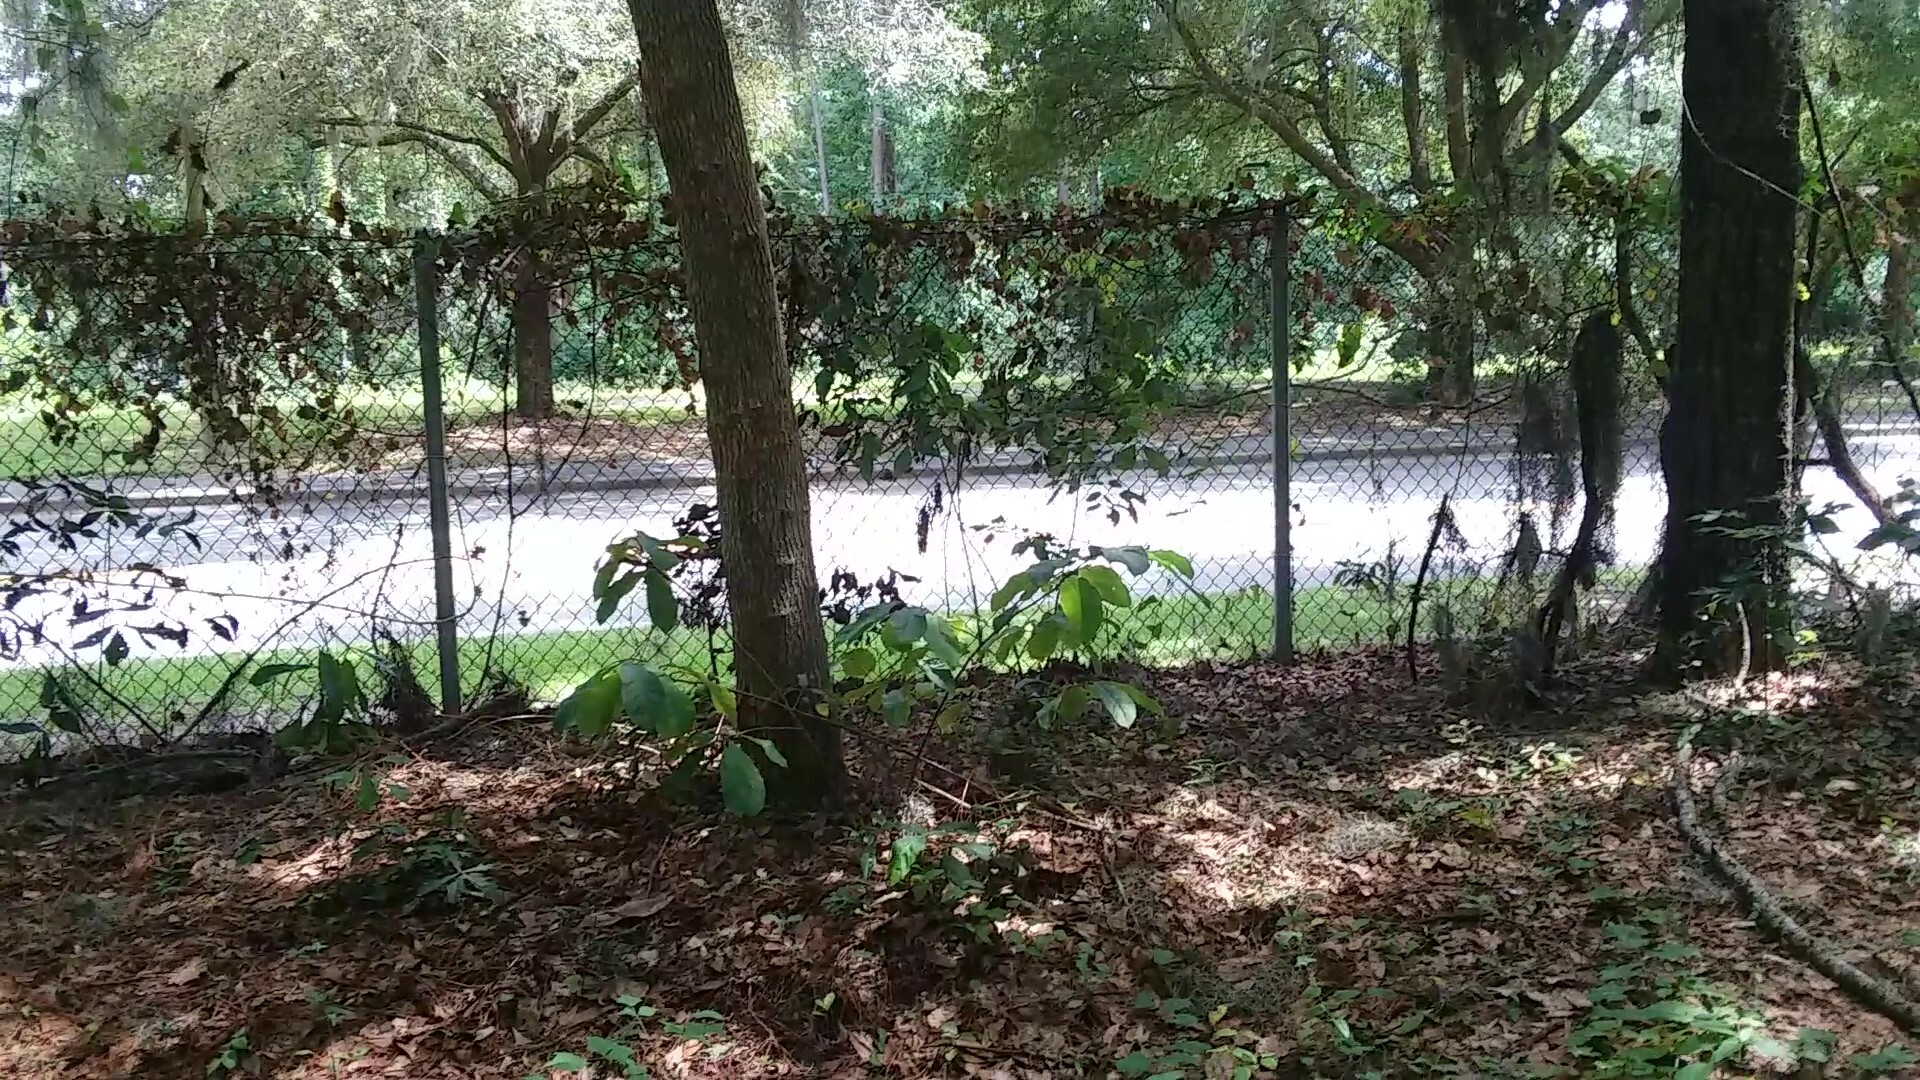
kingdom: Plantae
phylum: Tracheophyta
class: Magnoliopsida
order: Magnoliales
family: Annonaceae
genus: Asimina
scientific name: Asimina parviflora
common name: Dwarf pawpaw
